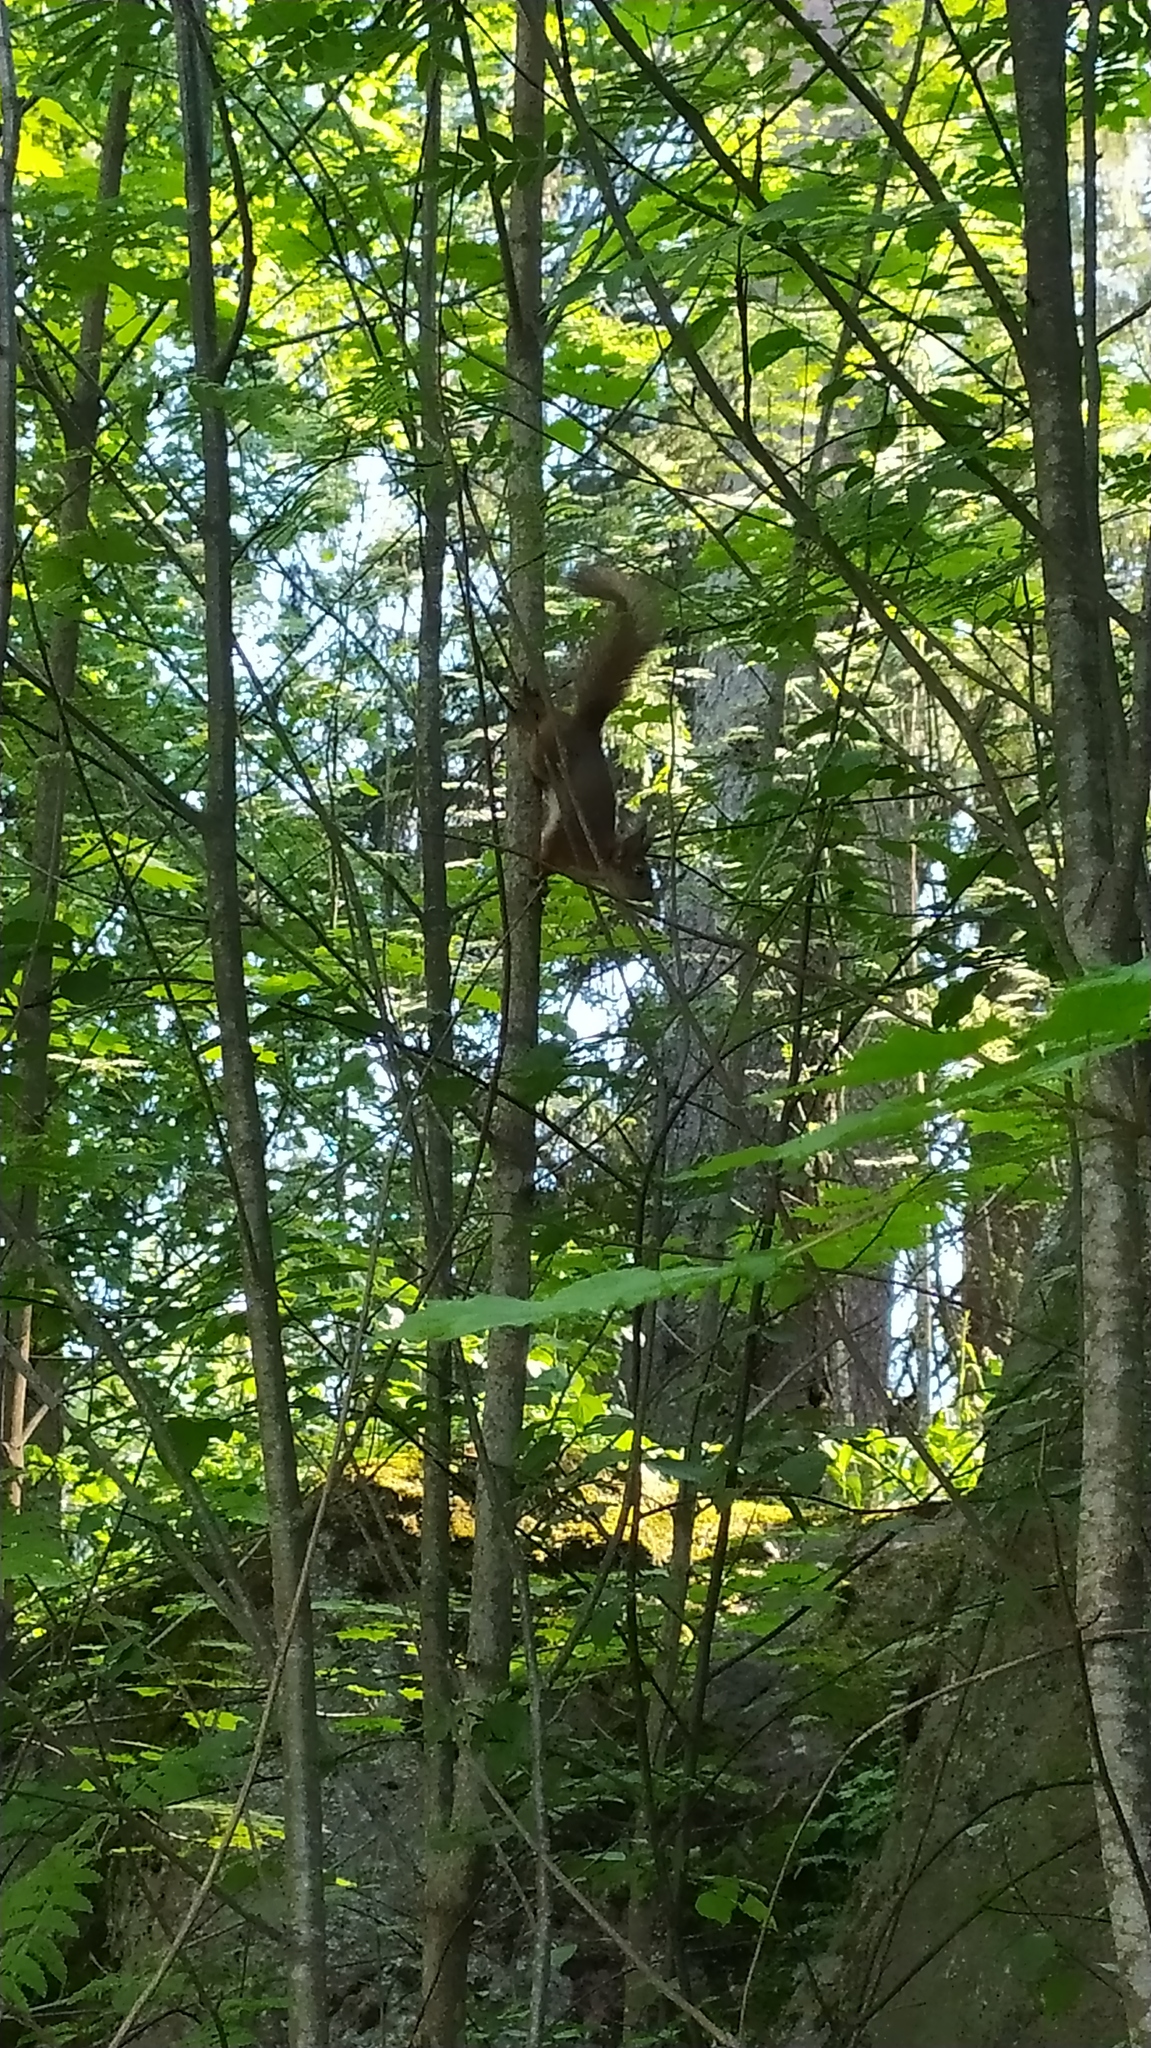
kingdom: Animalia
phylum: Chordata
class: Mammalia
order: Rodentia
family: Sciuridae
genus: Sciurus
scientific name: Sciurus vulgaris
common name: Eurasian red squirrel
